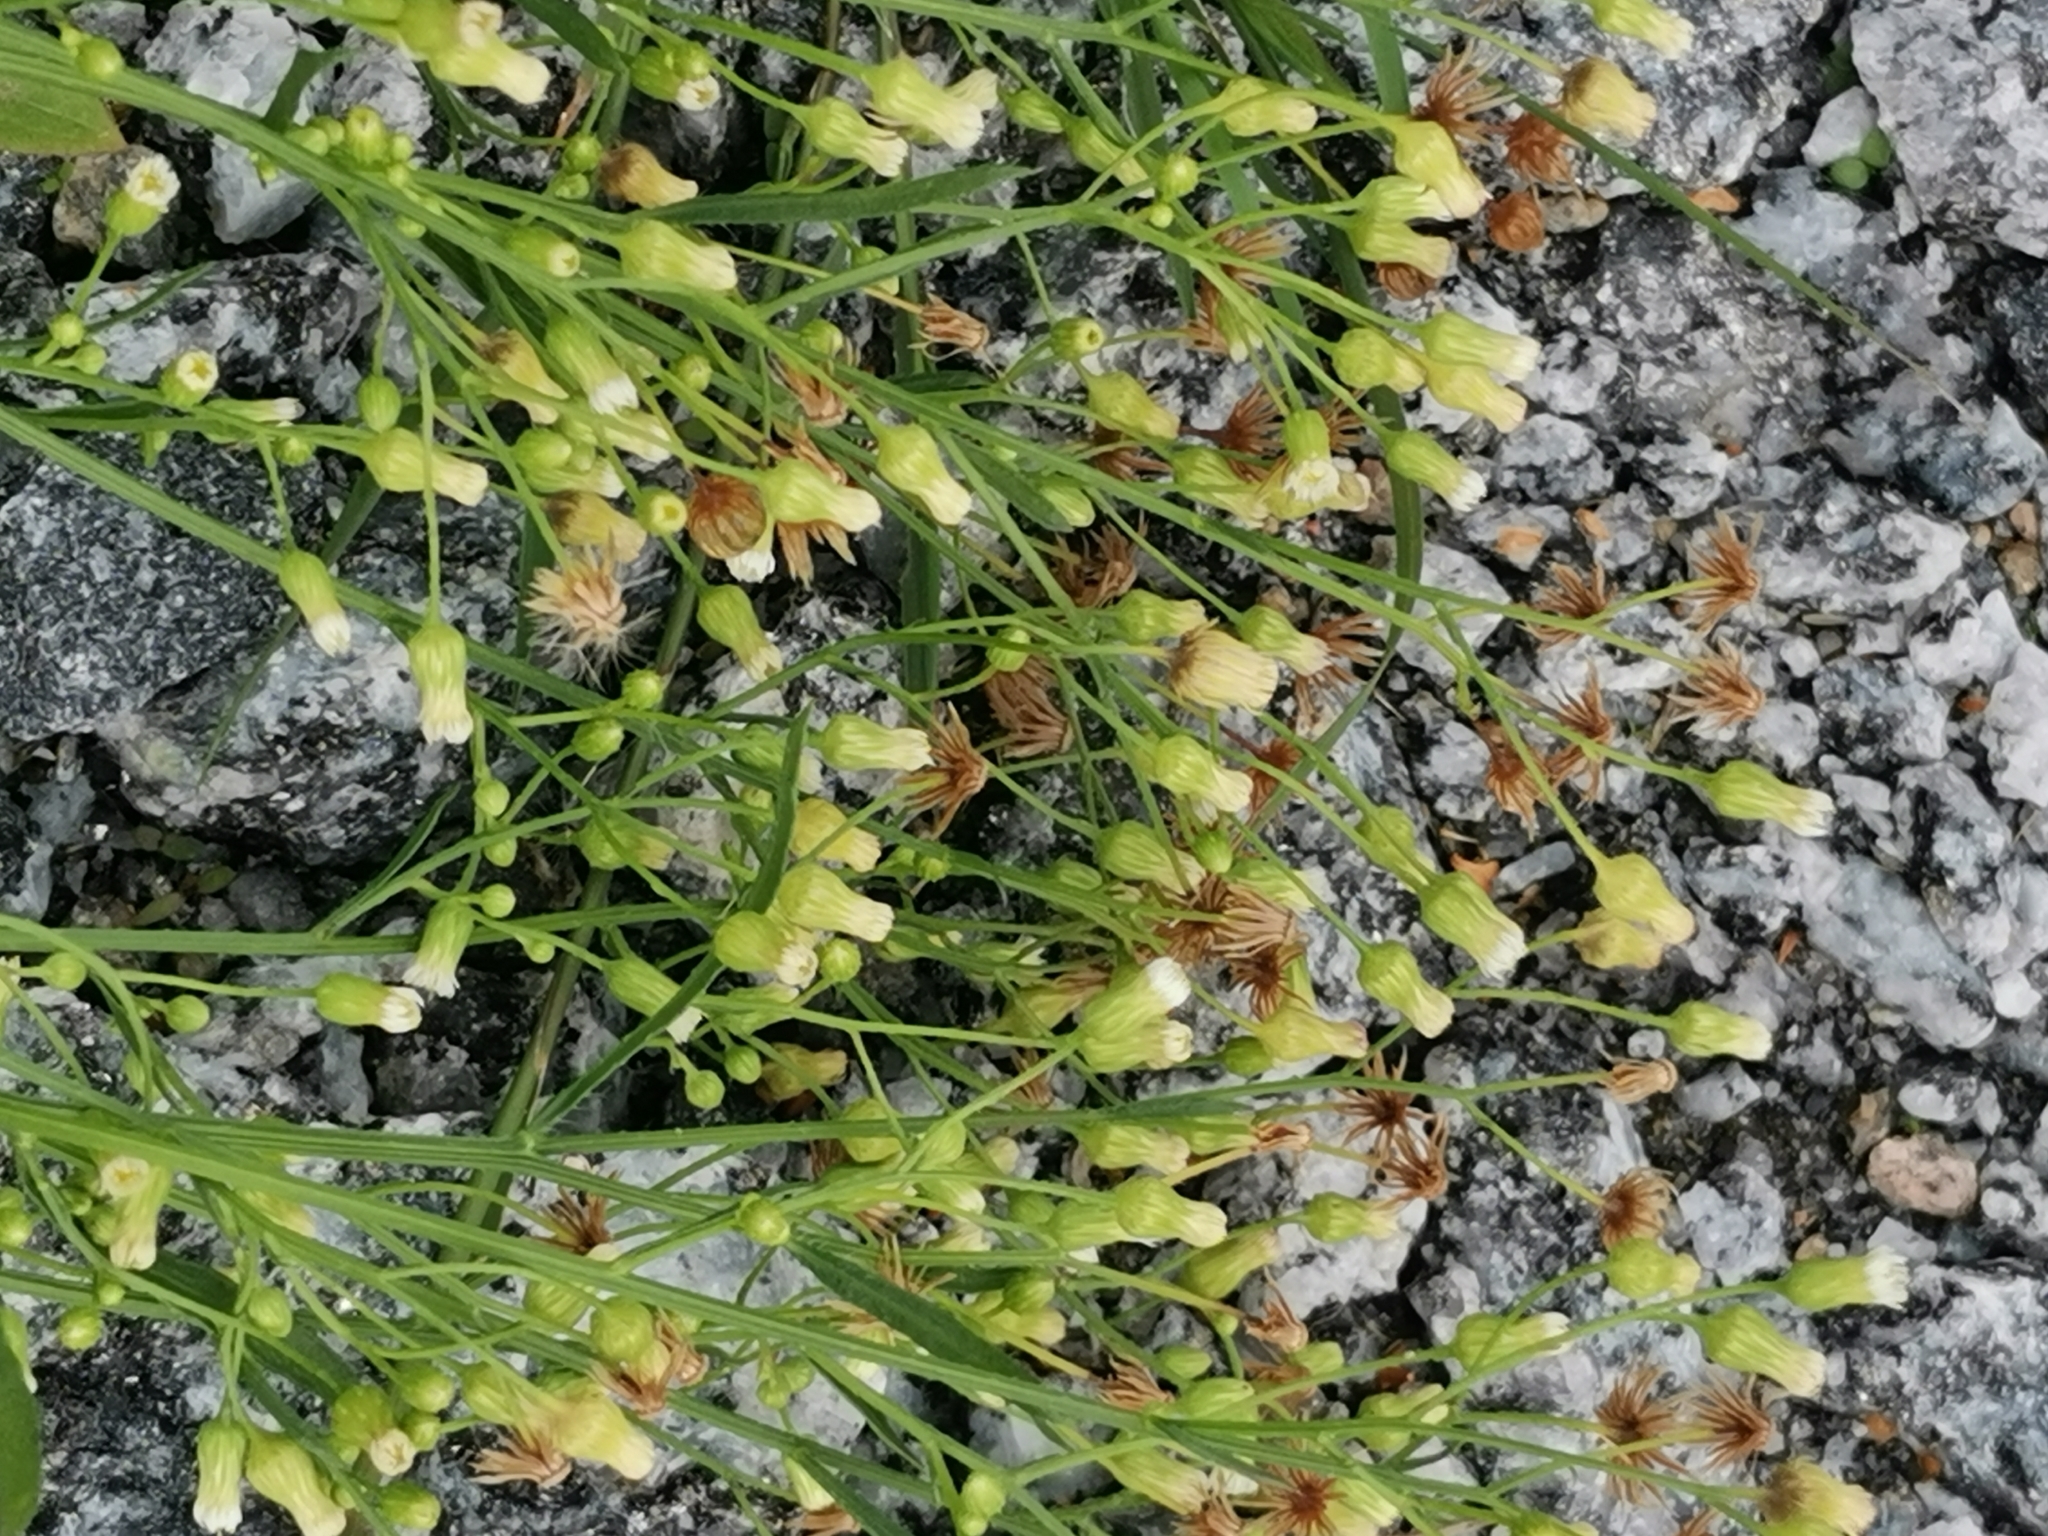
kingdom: Plantae
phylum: Tracheophyta
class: Magnoliopsida
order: Asterales
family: Asteraceae
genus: Erigeron
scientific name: Erigeron canadensis
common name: Canadian fleabane
